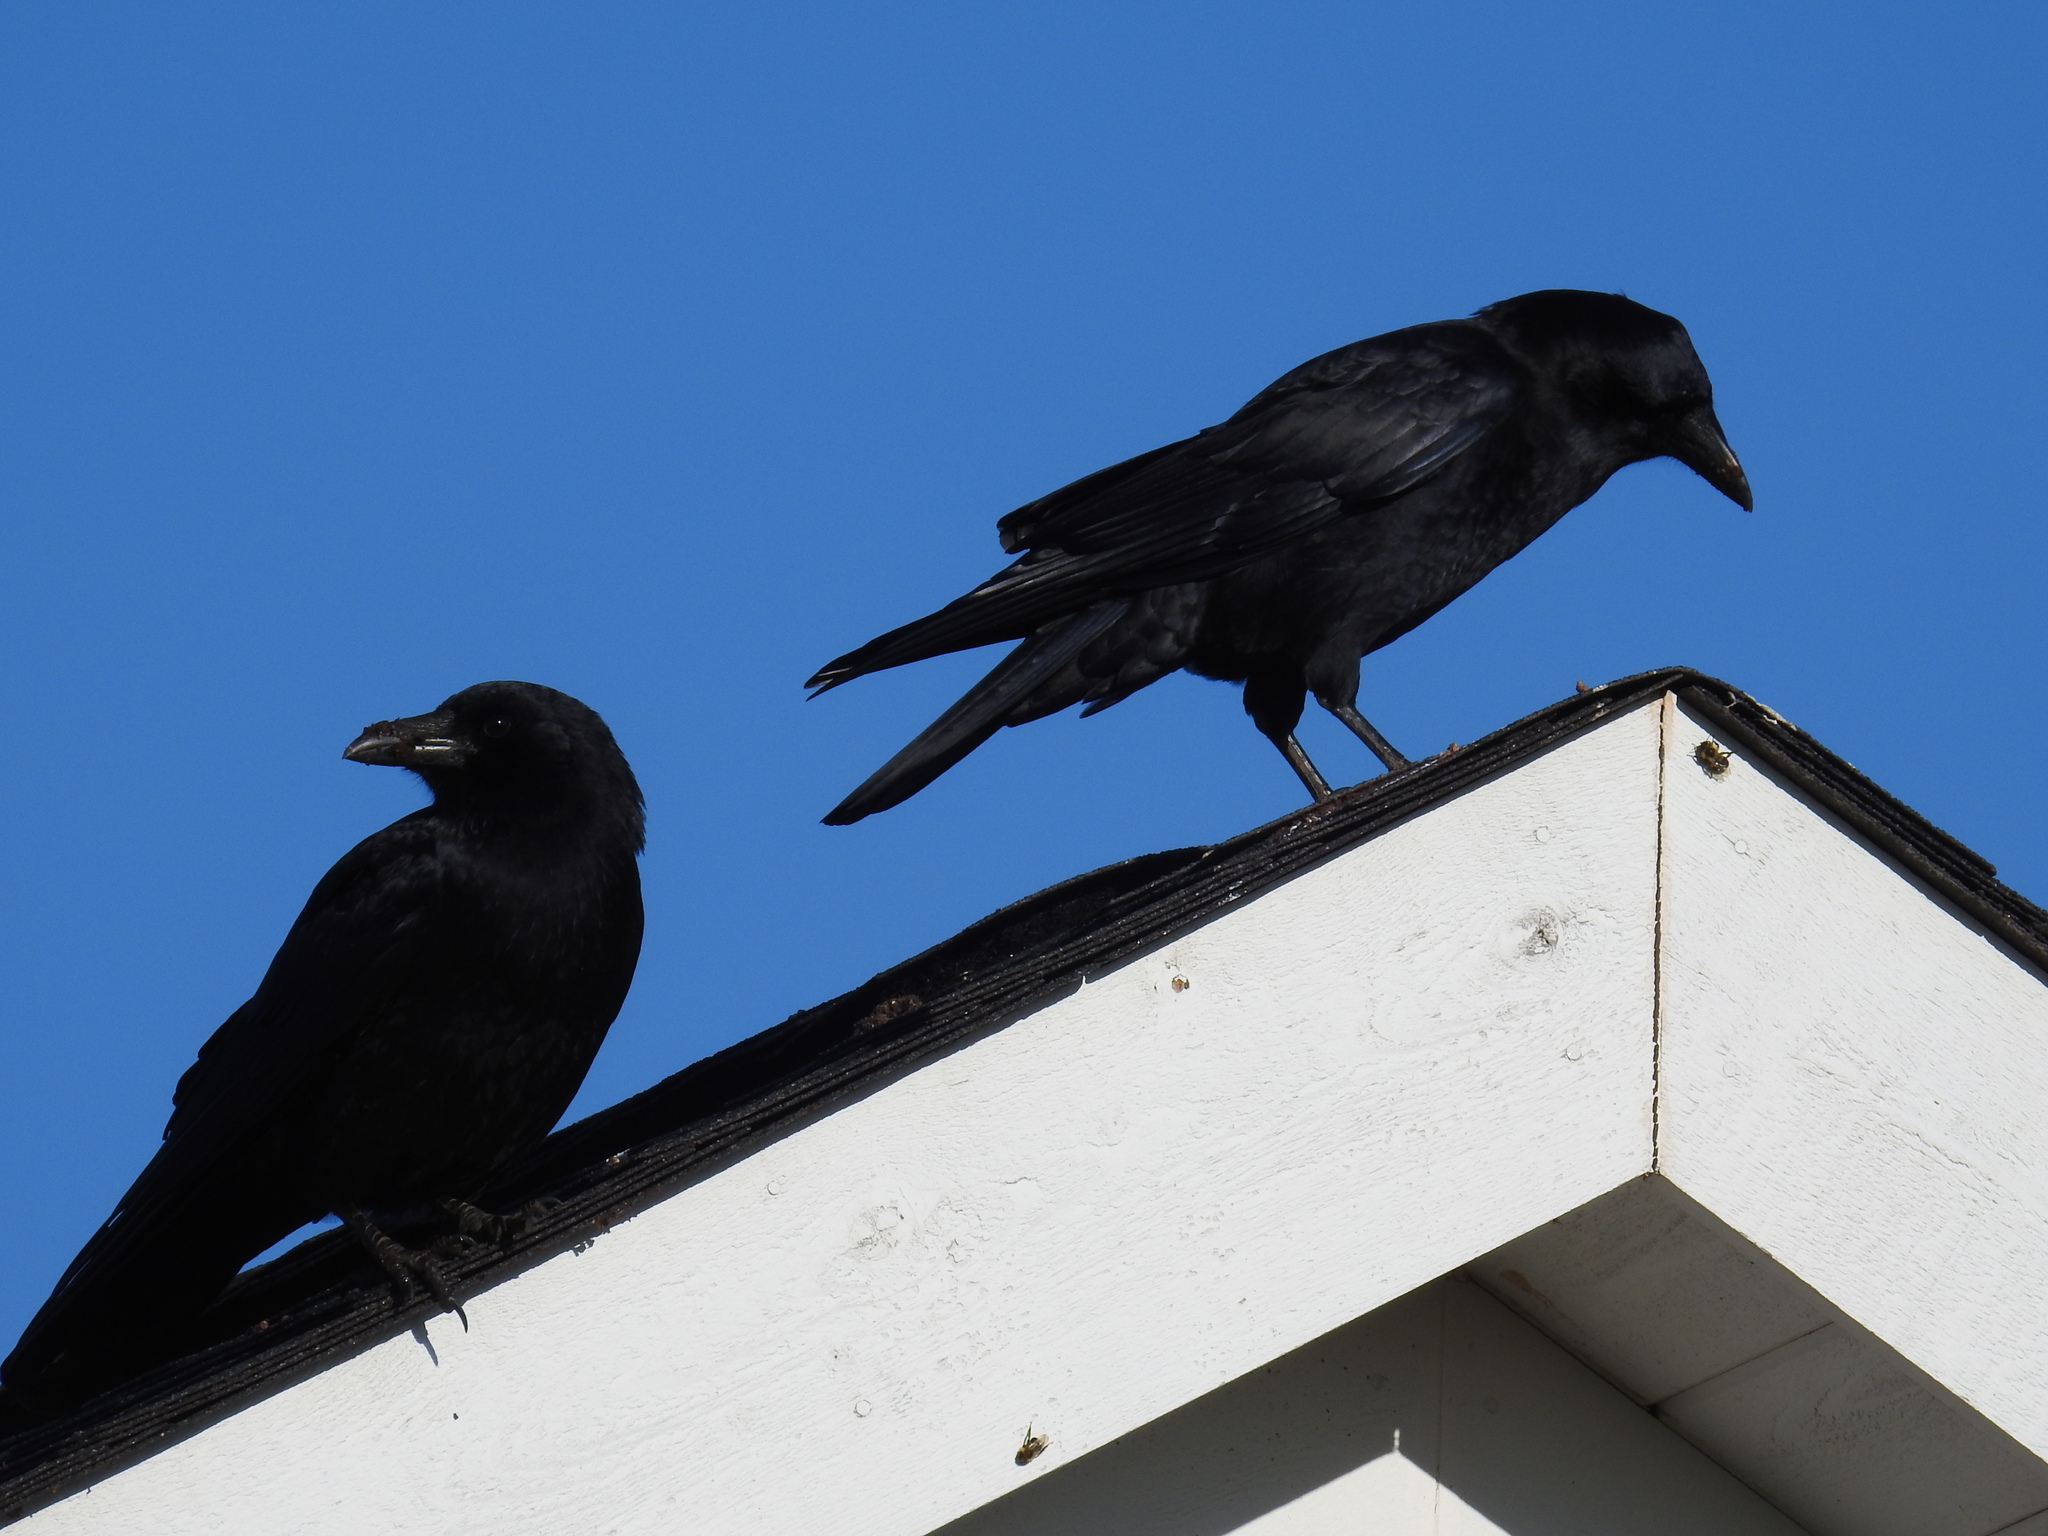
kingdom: Animalia
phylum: Chordata
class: Aves
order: Passeriformes
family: Corvidae
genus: Corvus
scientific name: Corvus brachyrhynchos
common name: American crow
